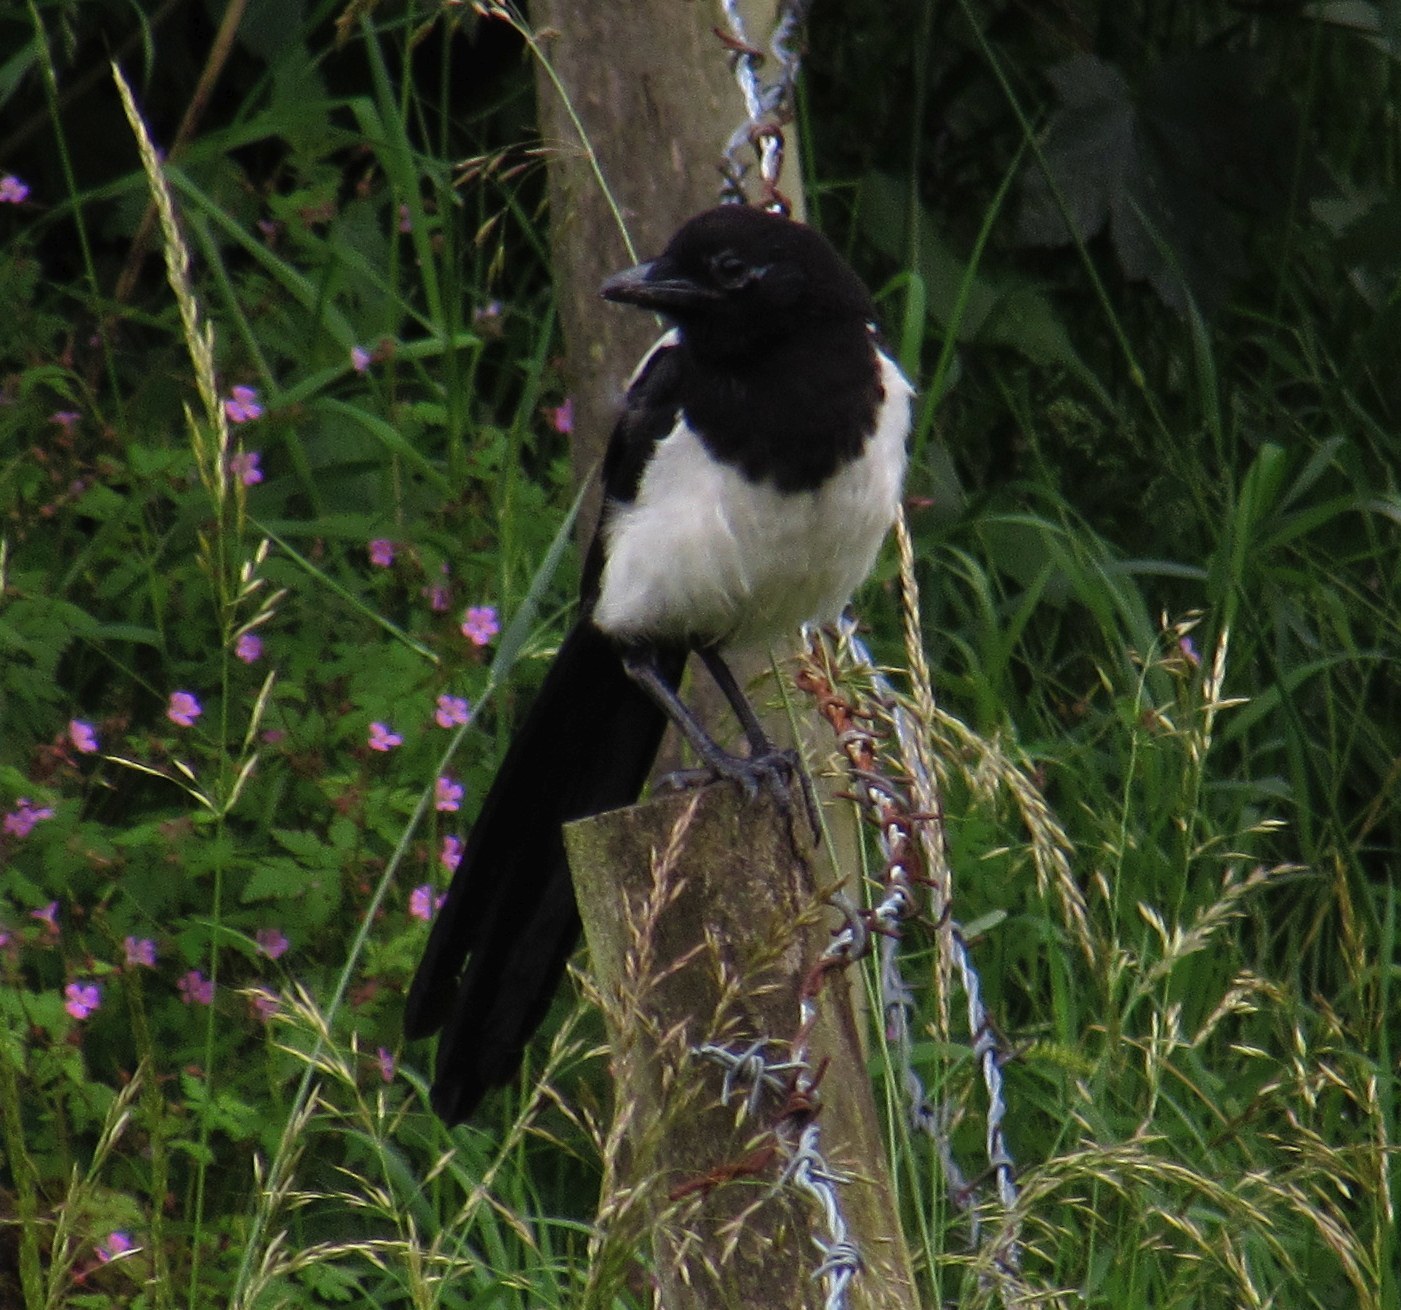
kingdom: Animalia
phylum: Chordata
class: Aves
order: Passeriformes
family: Corvidae
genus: Pica
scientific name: Pica pica
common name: Eurasian magpie
